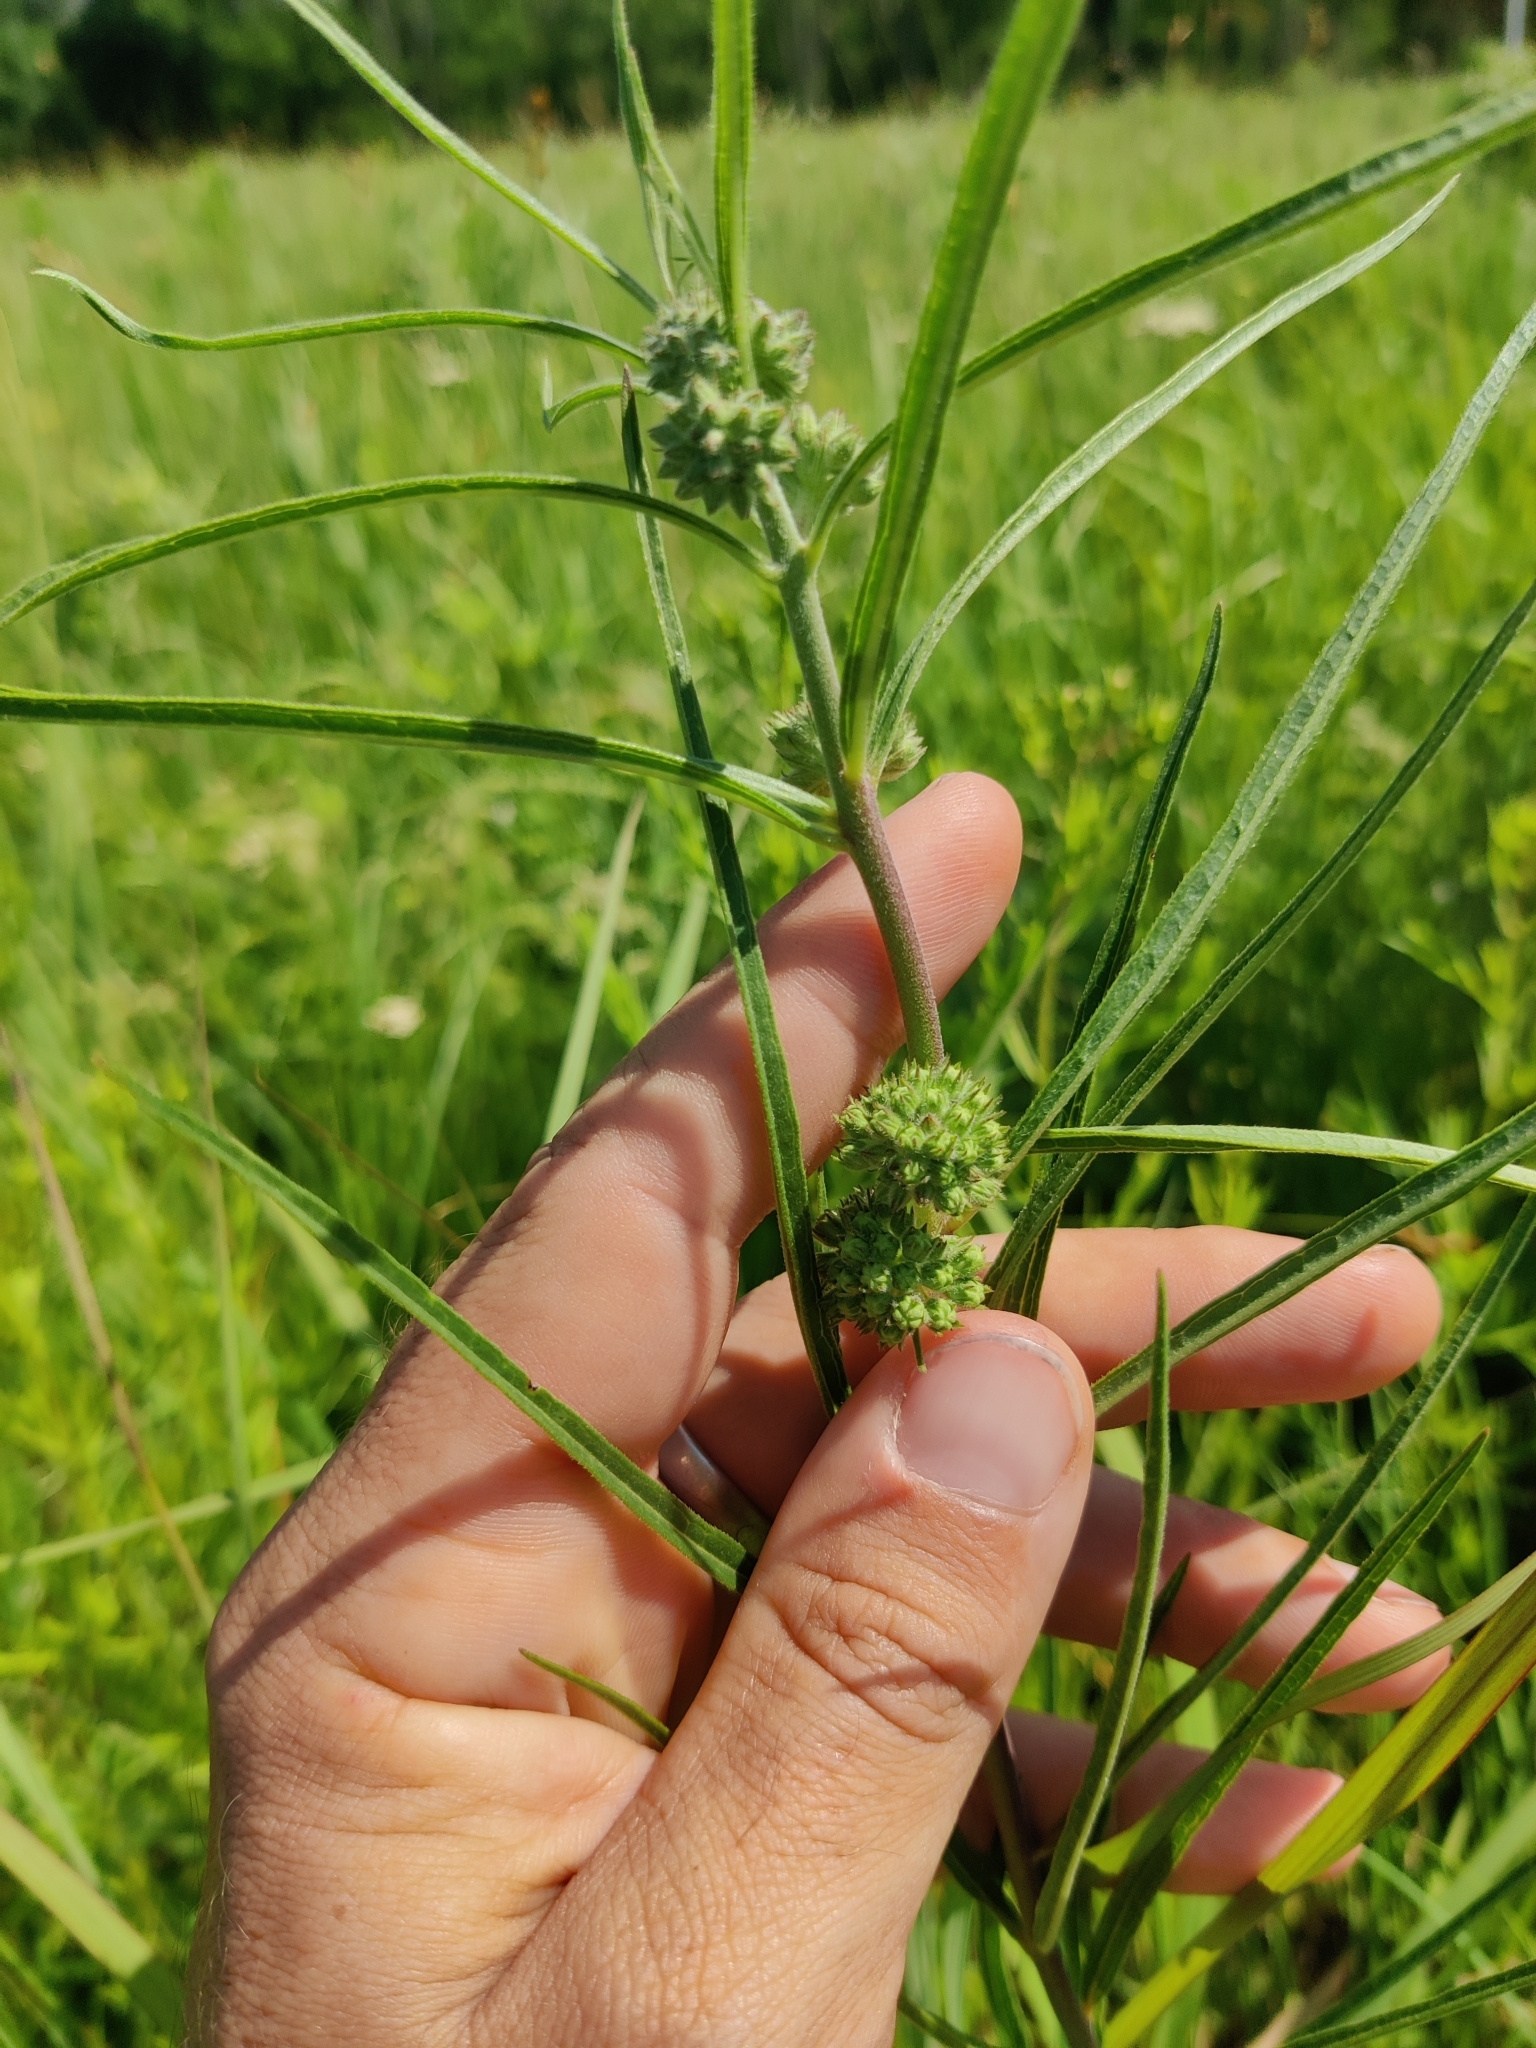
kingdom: Plantae
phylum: Tracheophyta
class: Magnoliopsida
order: Gentianales
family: Apocynaceae
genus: Asclepias
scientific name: Asclepias stenophylla
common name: Narrow-leaf milkweed
